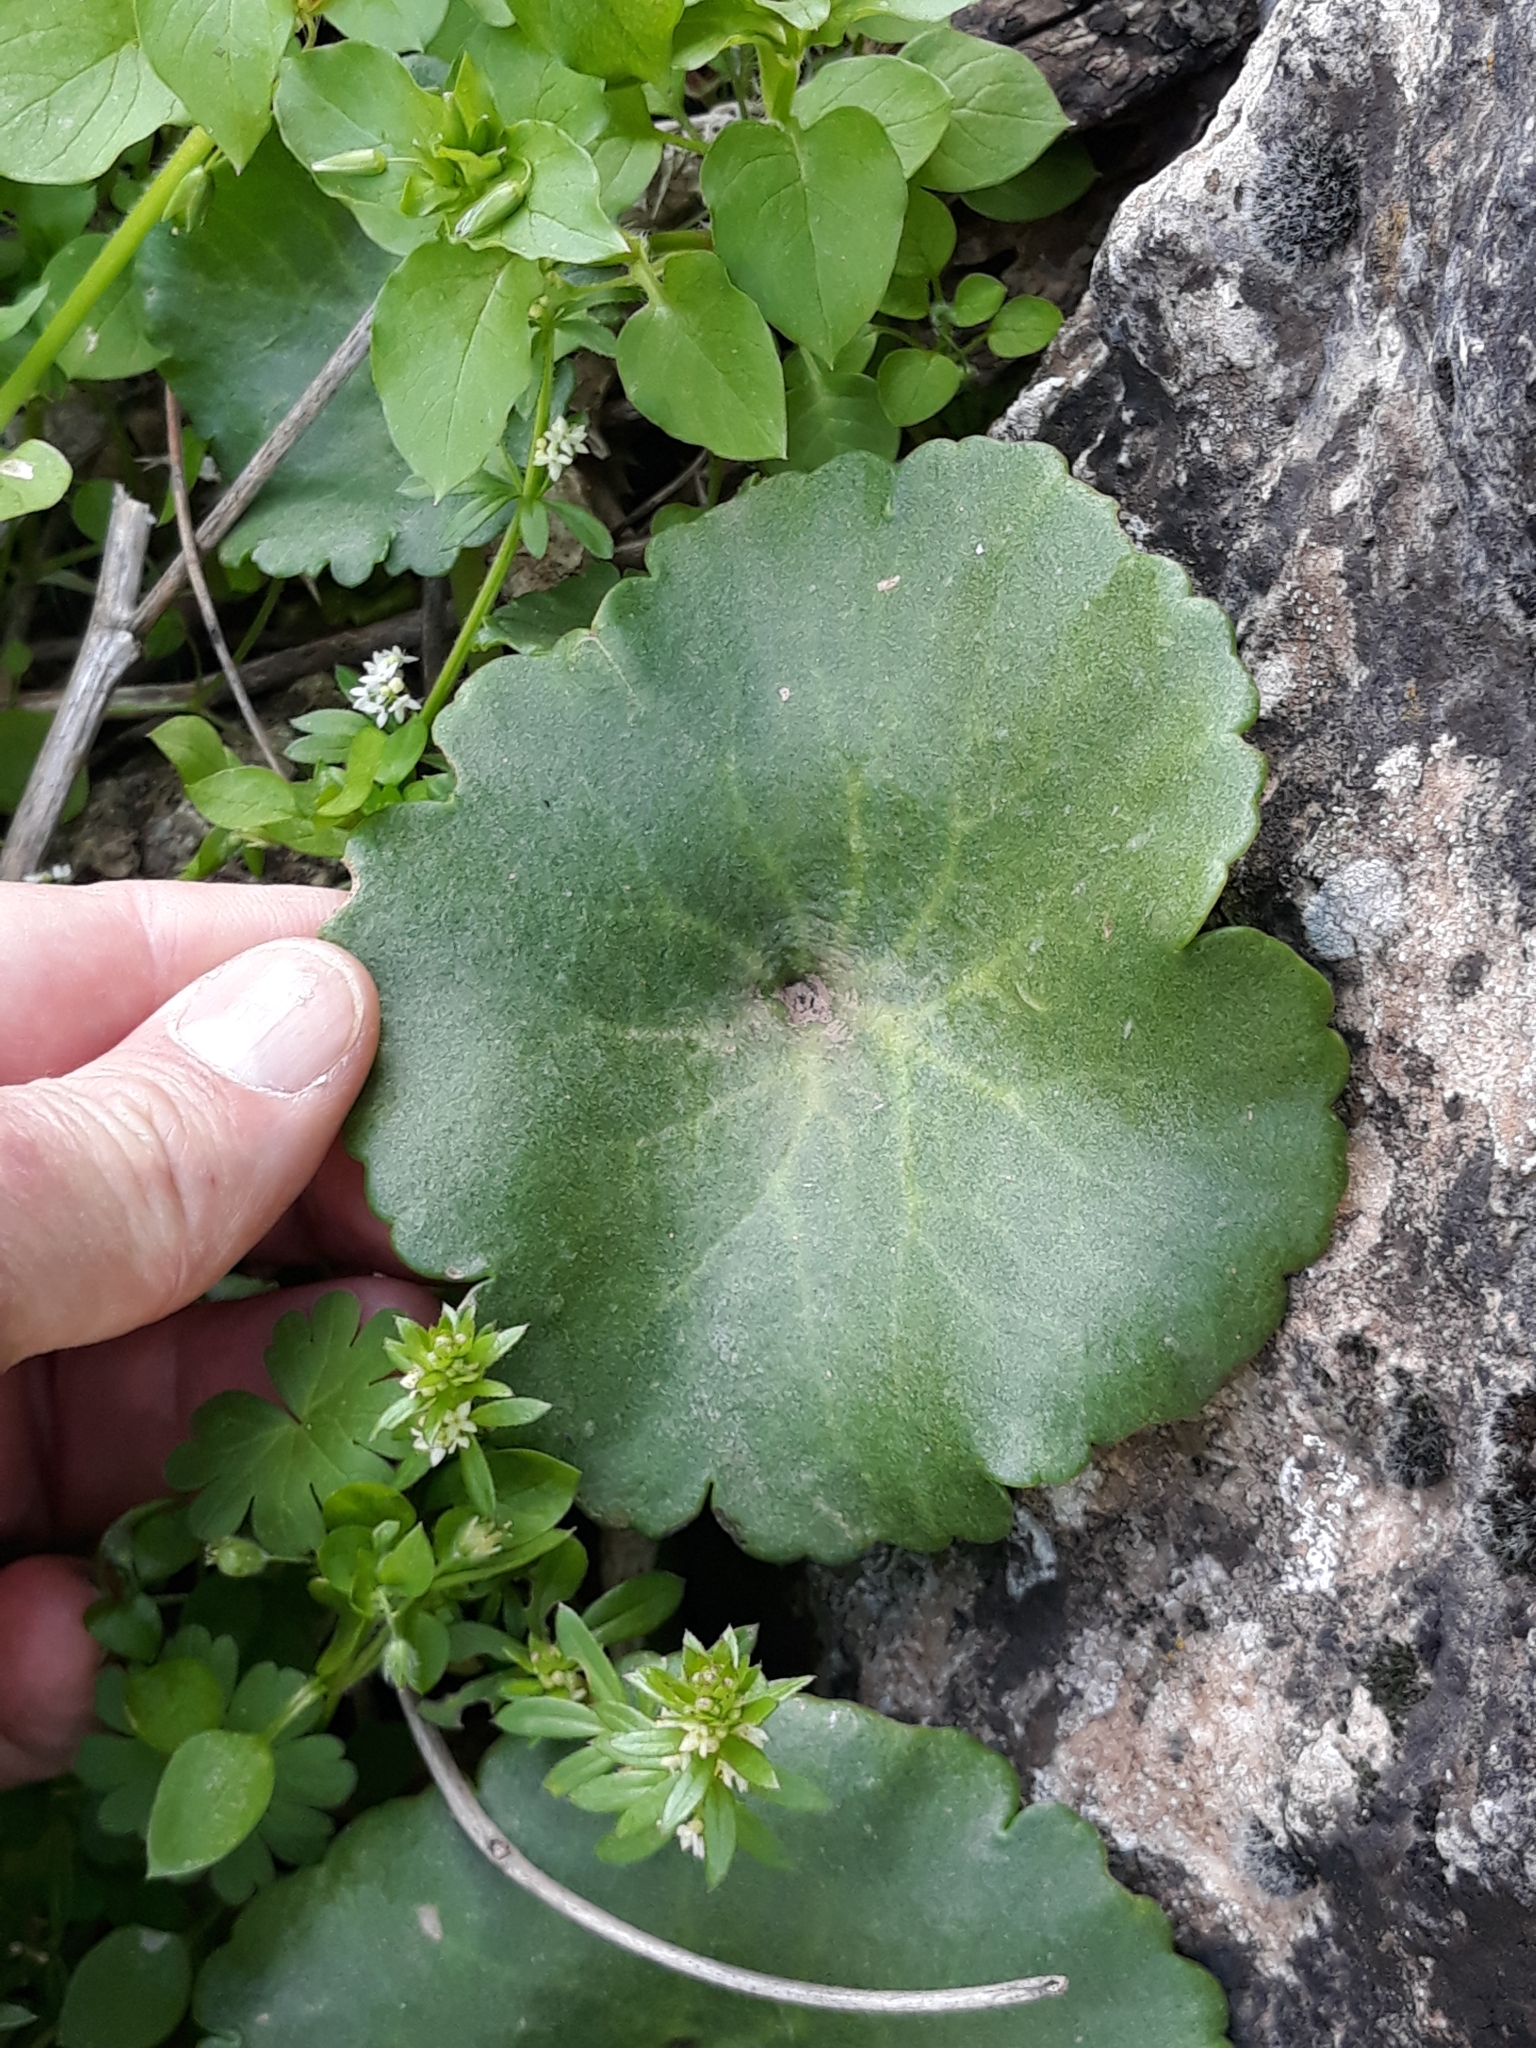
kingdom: Plantae
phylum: Tracheophyta
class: Magnoliopsida
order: Saxifragales
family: Crassulaceae
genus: Umbilicus
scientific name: Umbilicus rupestris
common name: Navelwort
